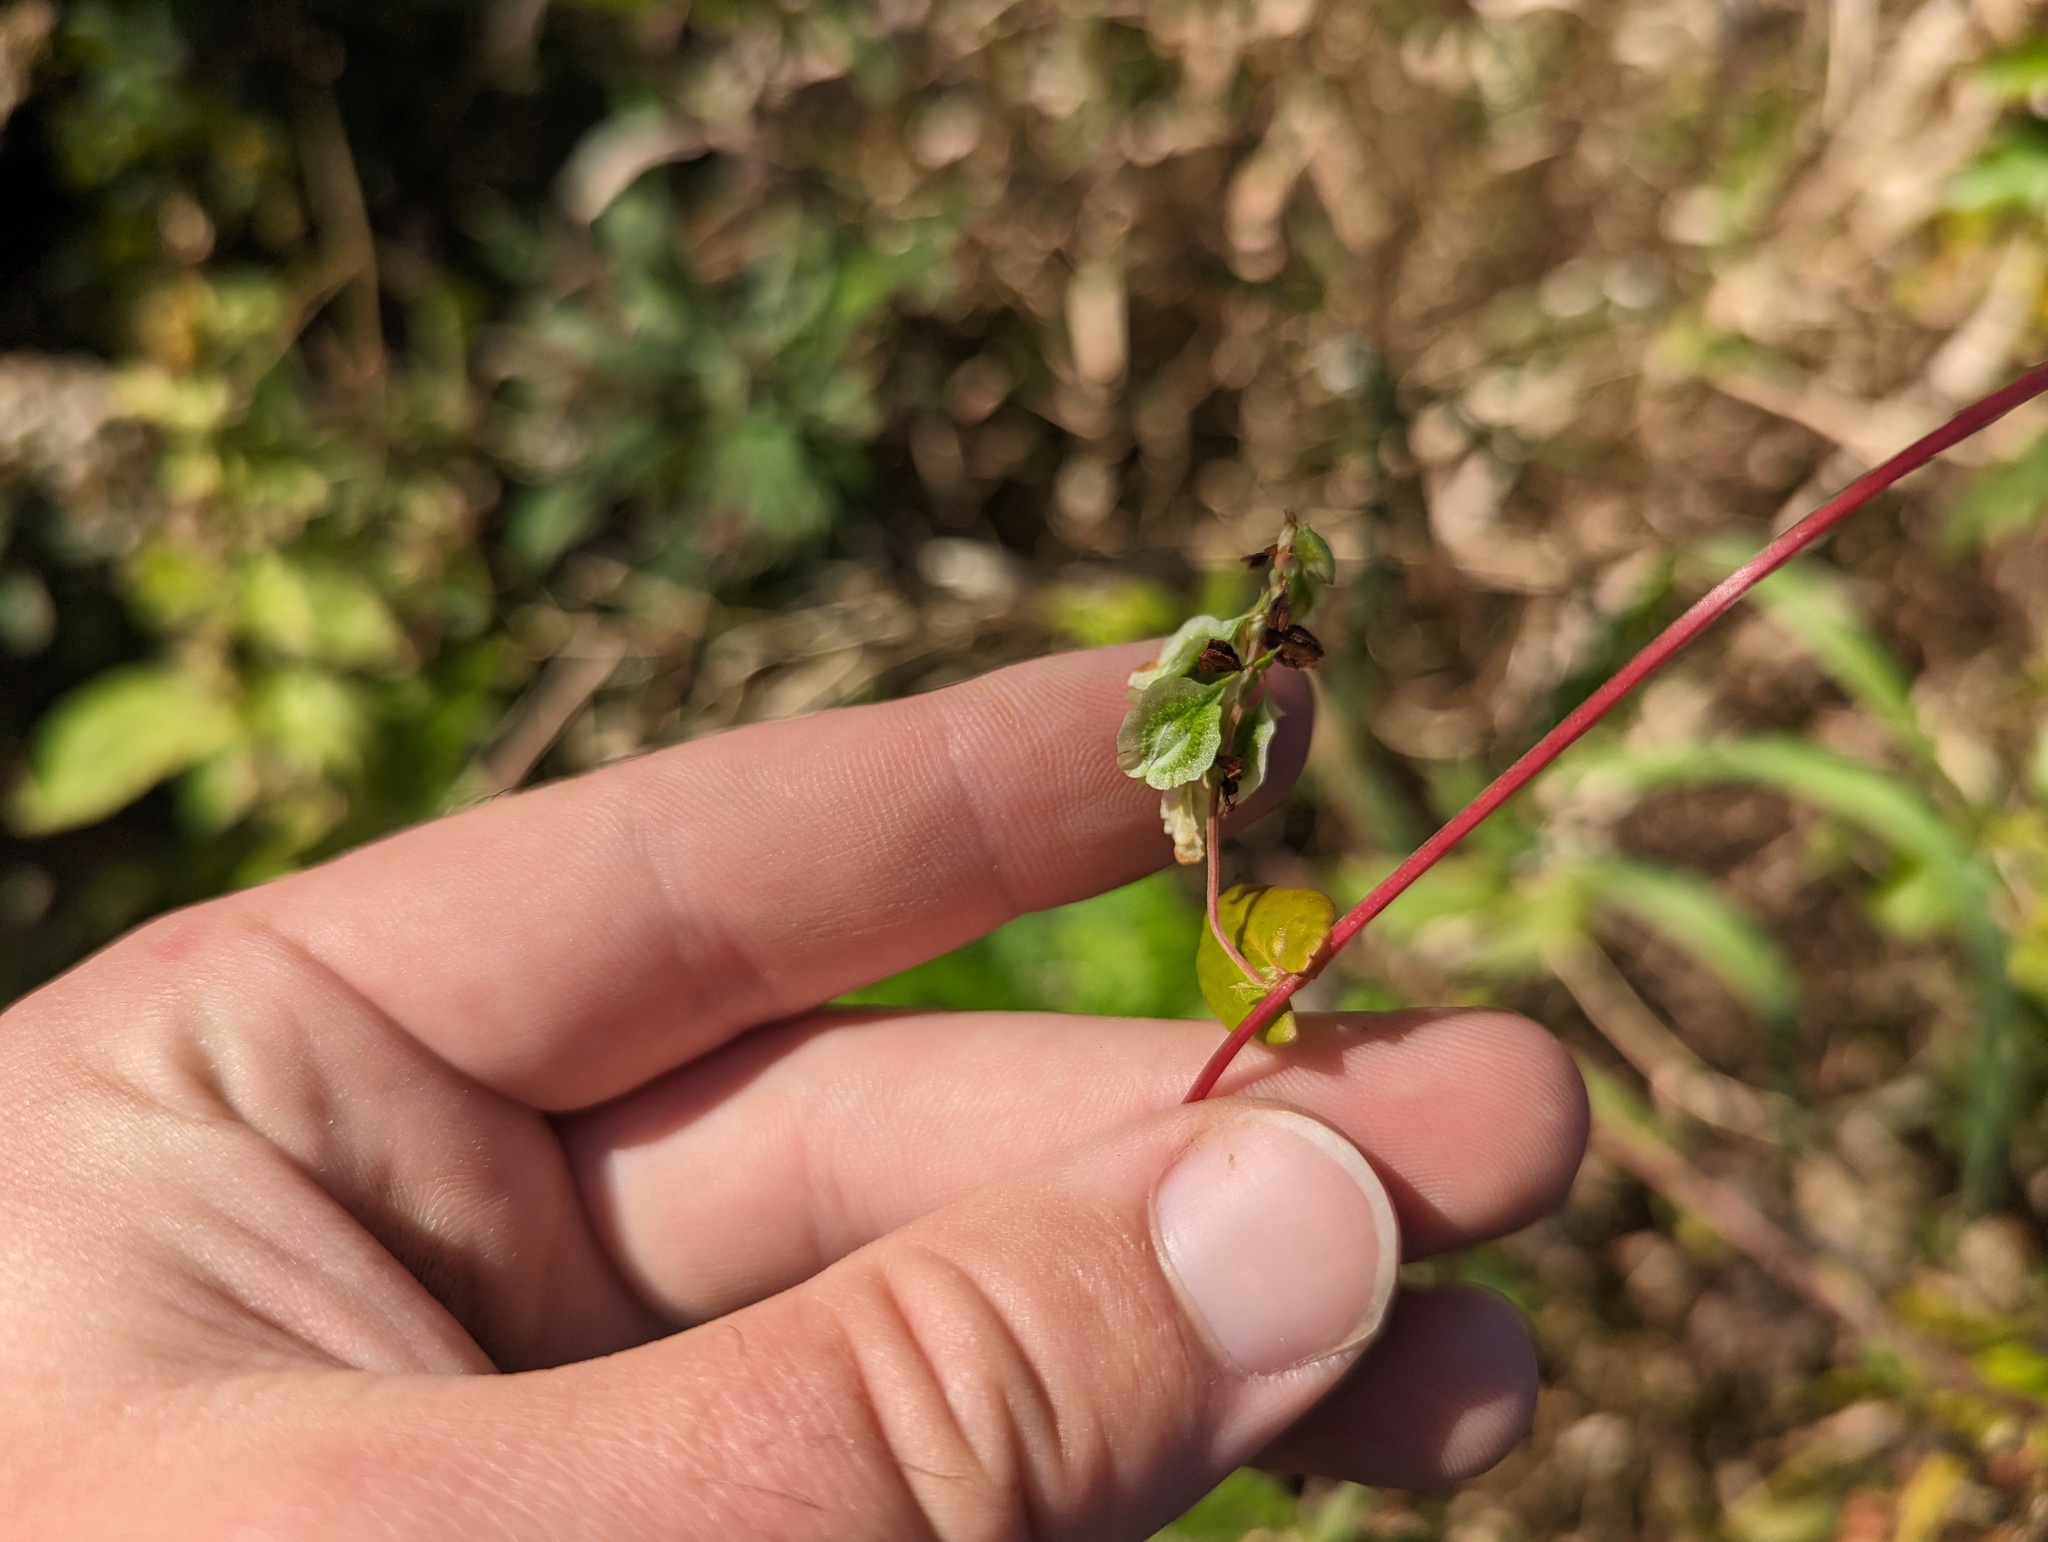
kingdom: Plantae
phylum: Tracheophyta
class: Magnoliopsida
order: Caryophyllales
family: Polygonaceae
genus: Fallopia
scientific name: Fallopia scandens
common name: Climbing false buckwheat
